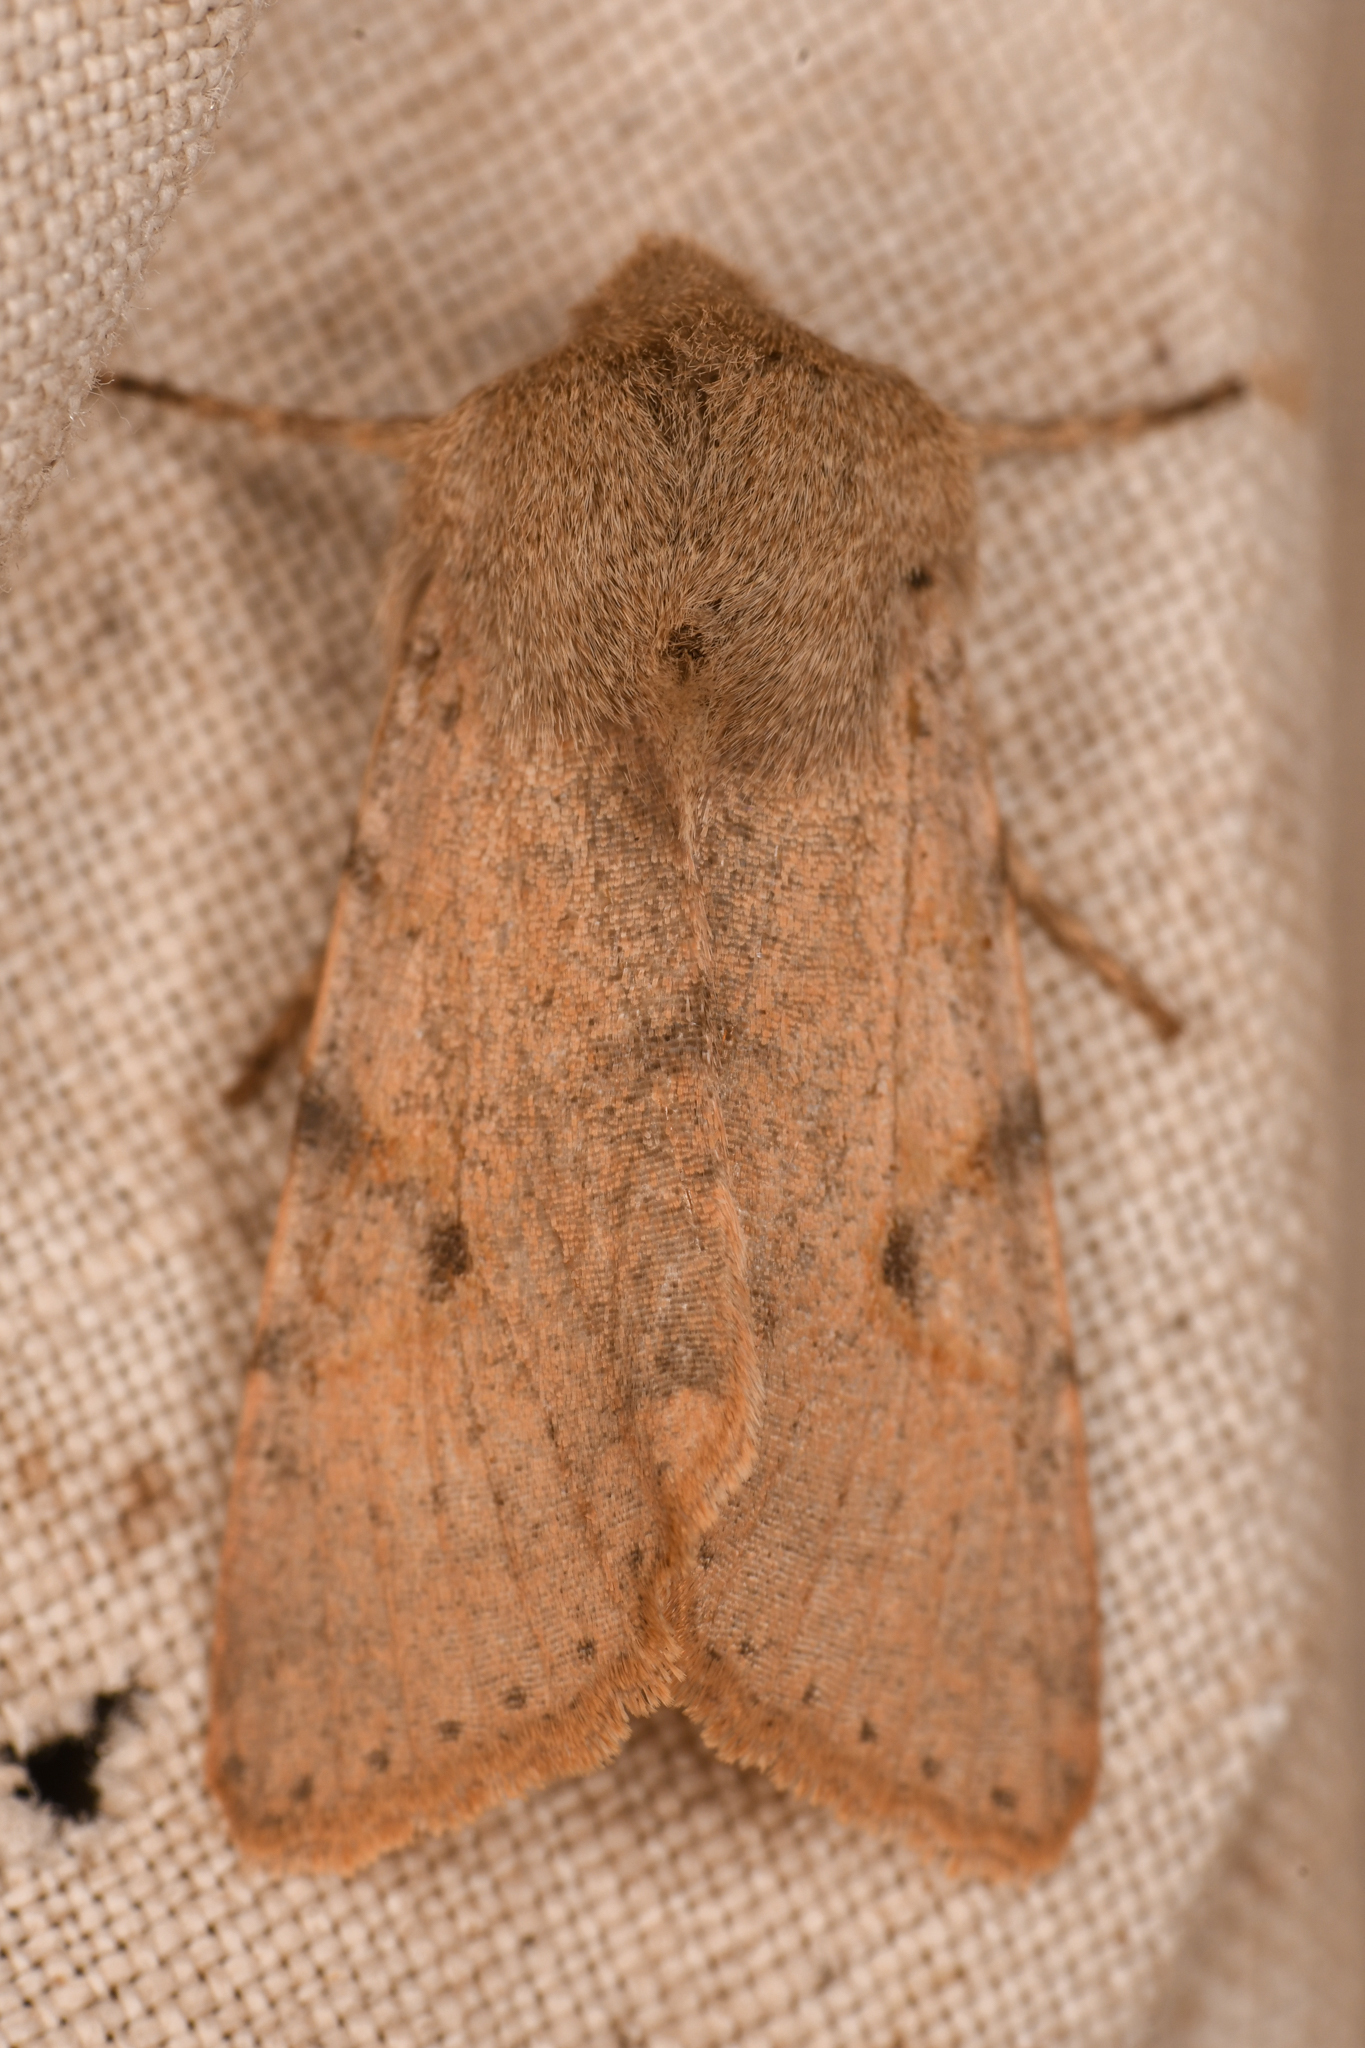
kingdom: Animalia
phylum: Arthropoda
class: Insecta
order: Lepidoptera
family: Noctuidae
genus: Orthosia
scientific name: Orthosia behrensiana
